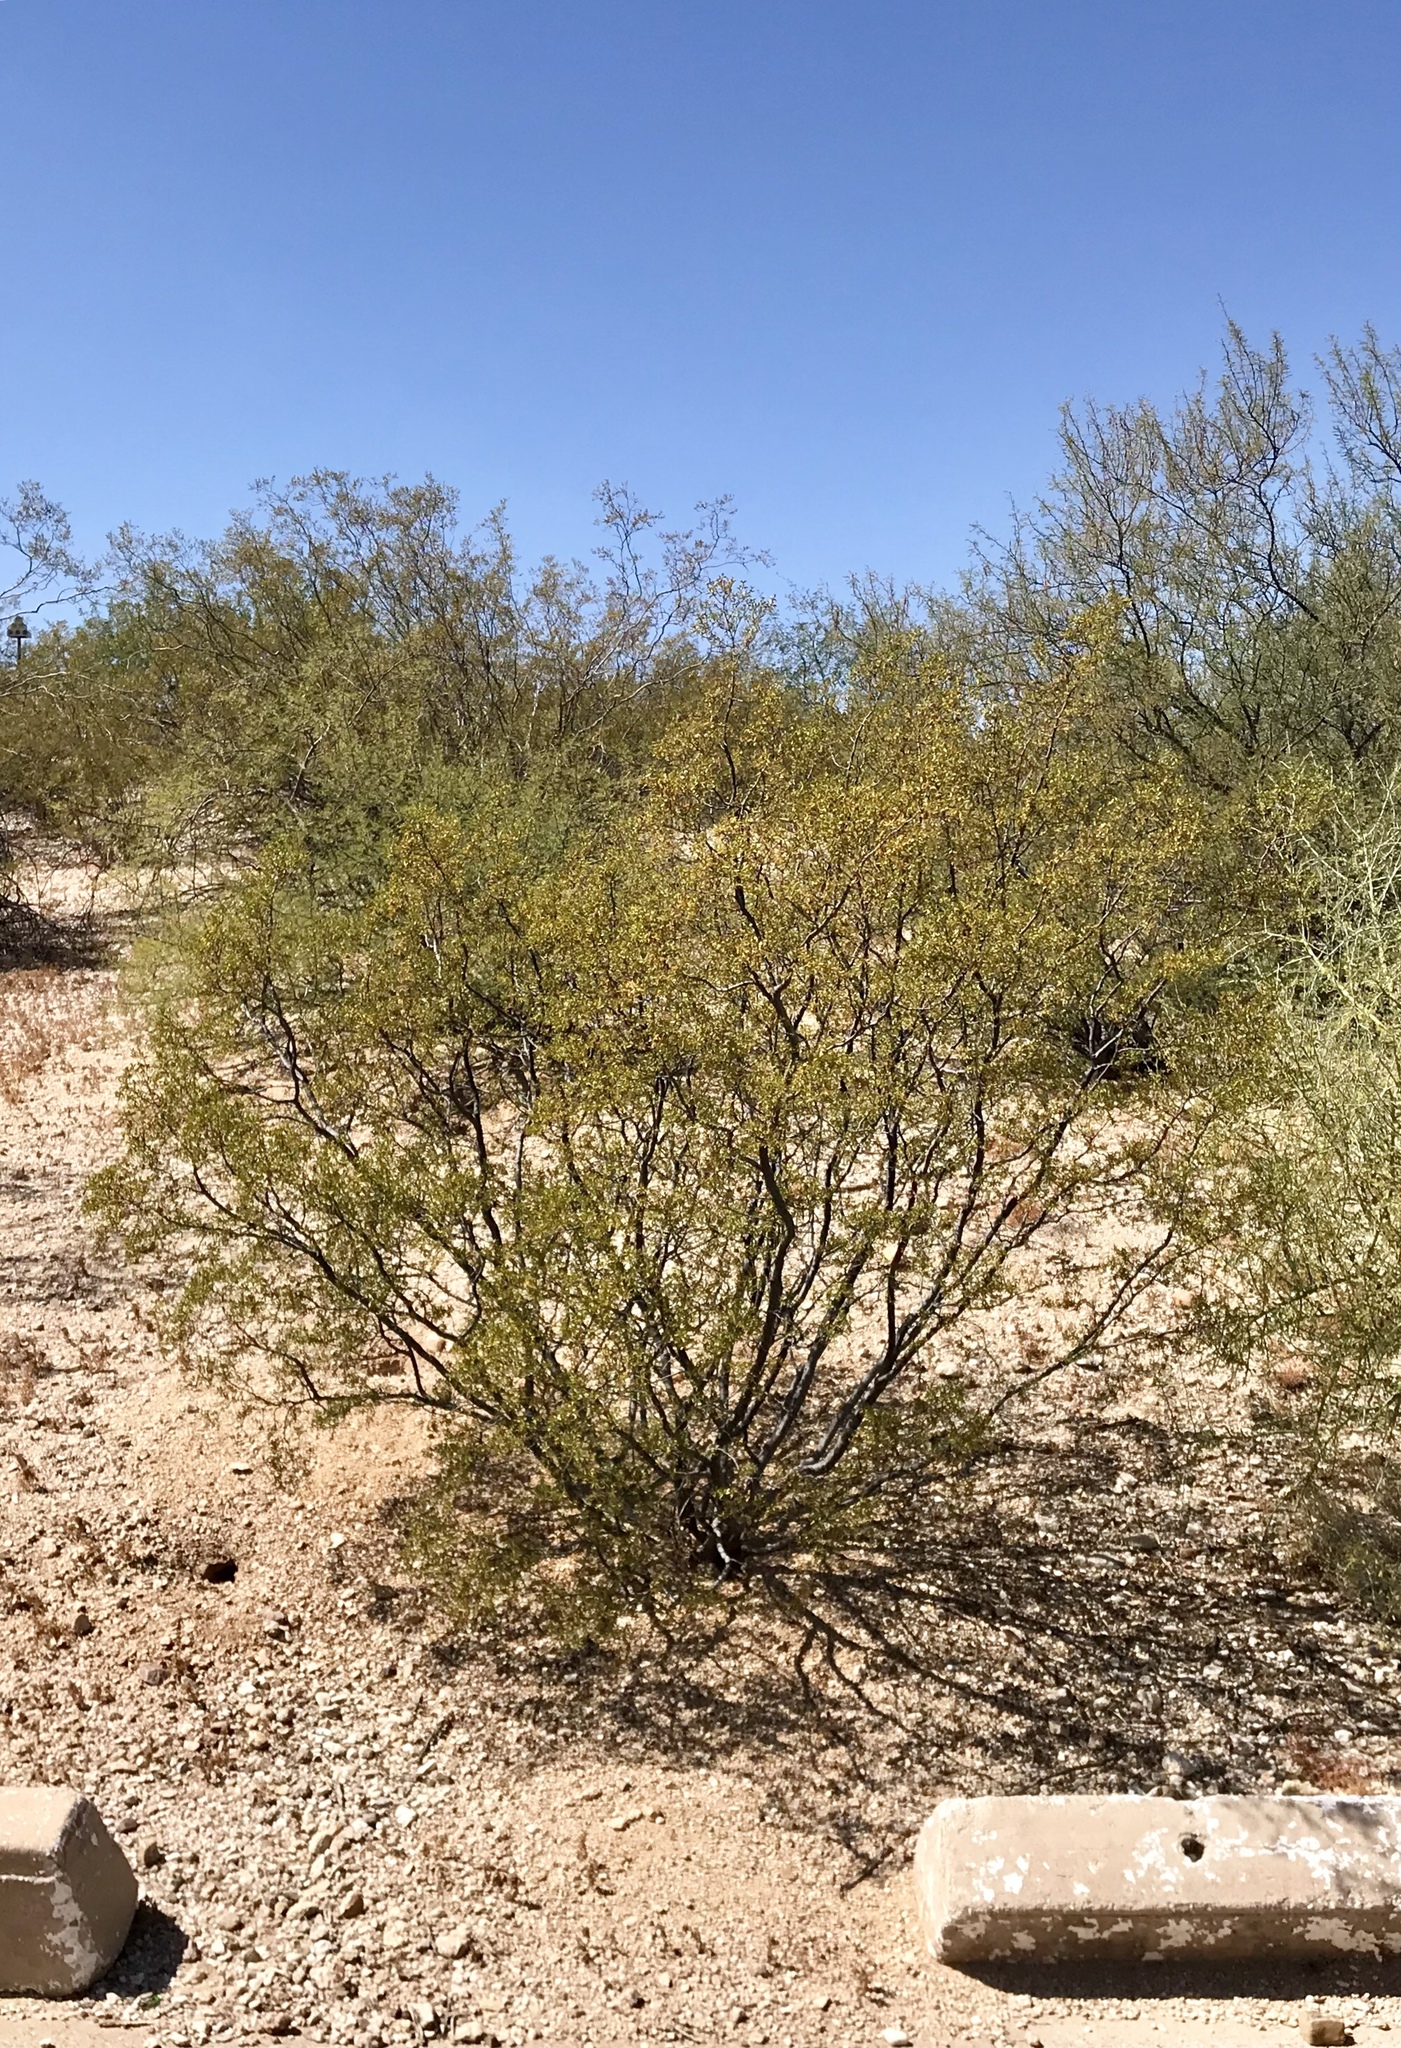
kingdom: Plantae
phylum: Tracheophyta
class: Magnoliopsida
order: Zygophyllales
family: Zygophyllaceae
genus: Larrea
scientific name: Larrea tridentata
